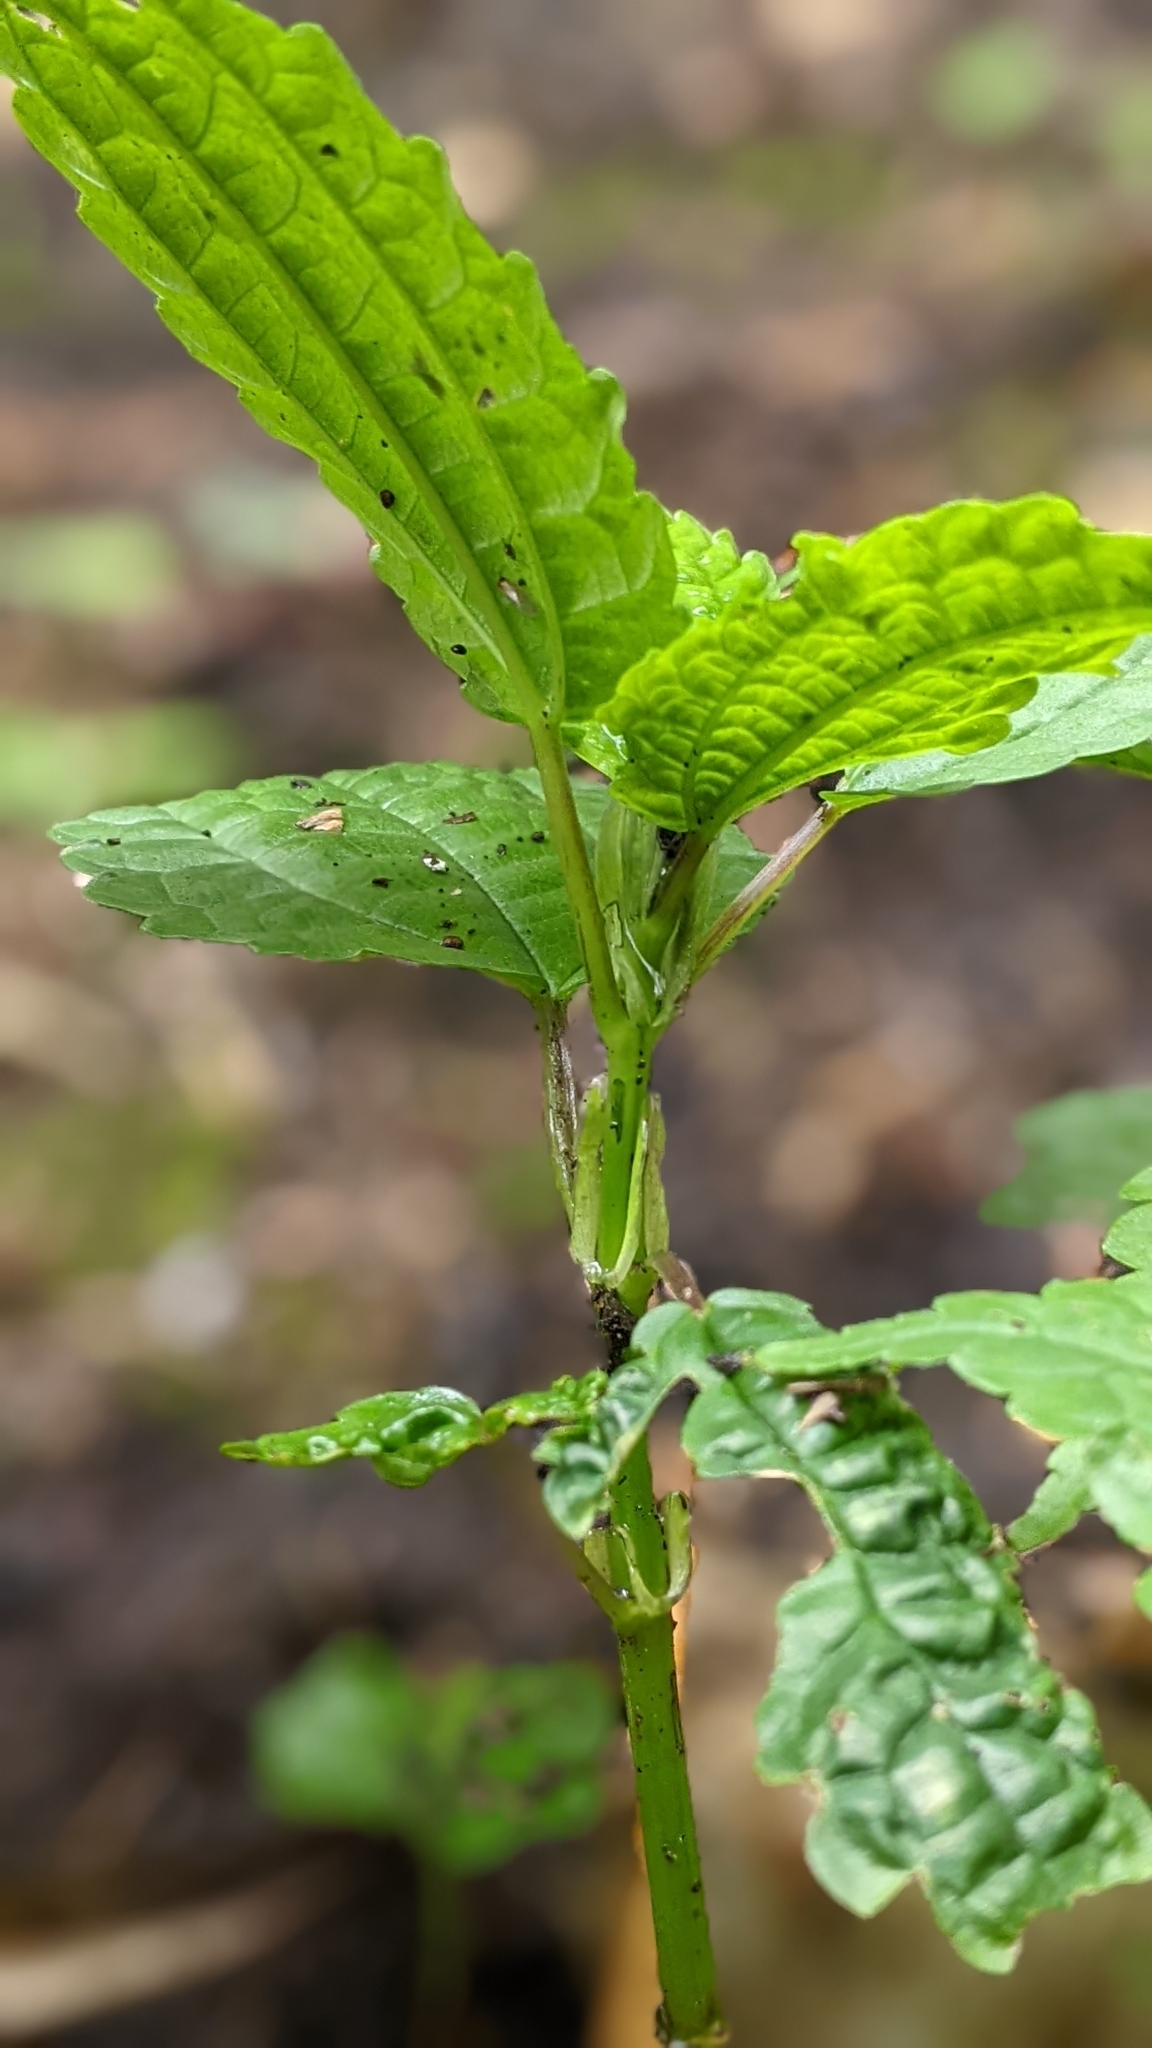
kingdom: Plantae
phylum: Tracheophyta
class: Magnoliopsida
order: Rosales
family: Urticaceae
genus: Pilea
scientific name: Pilea angulata
